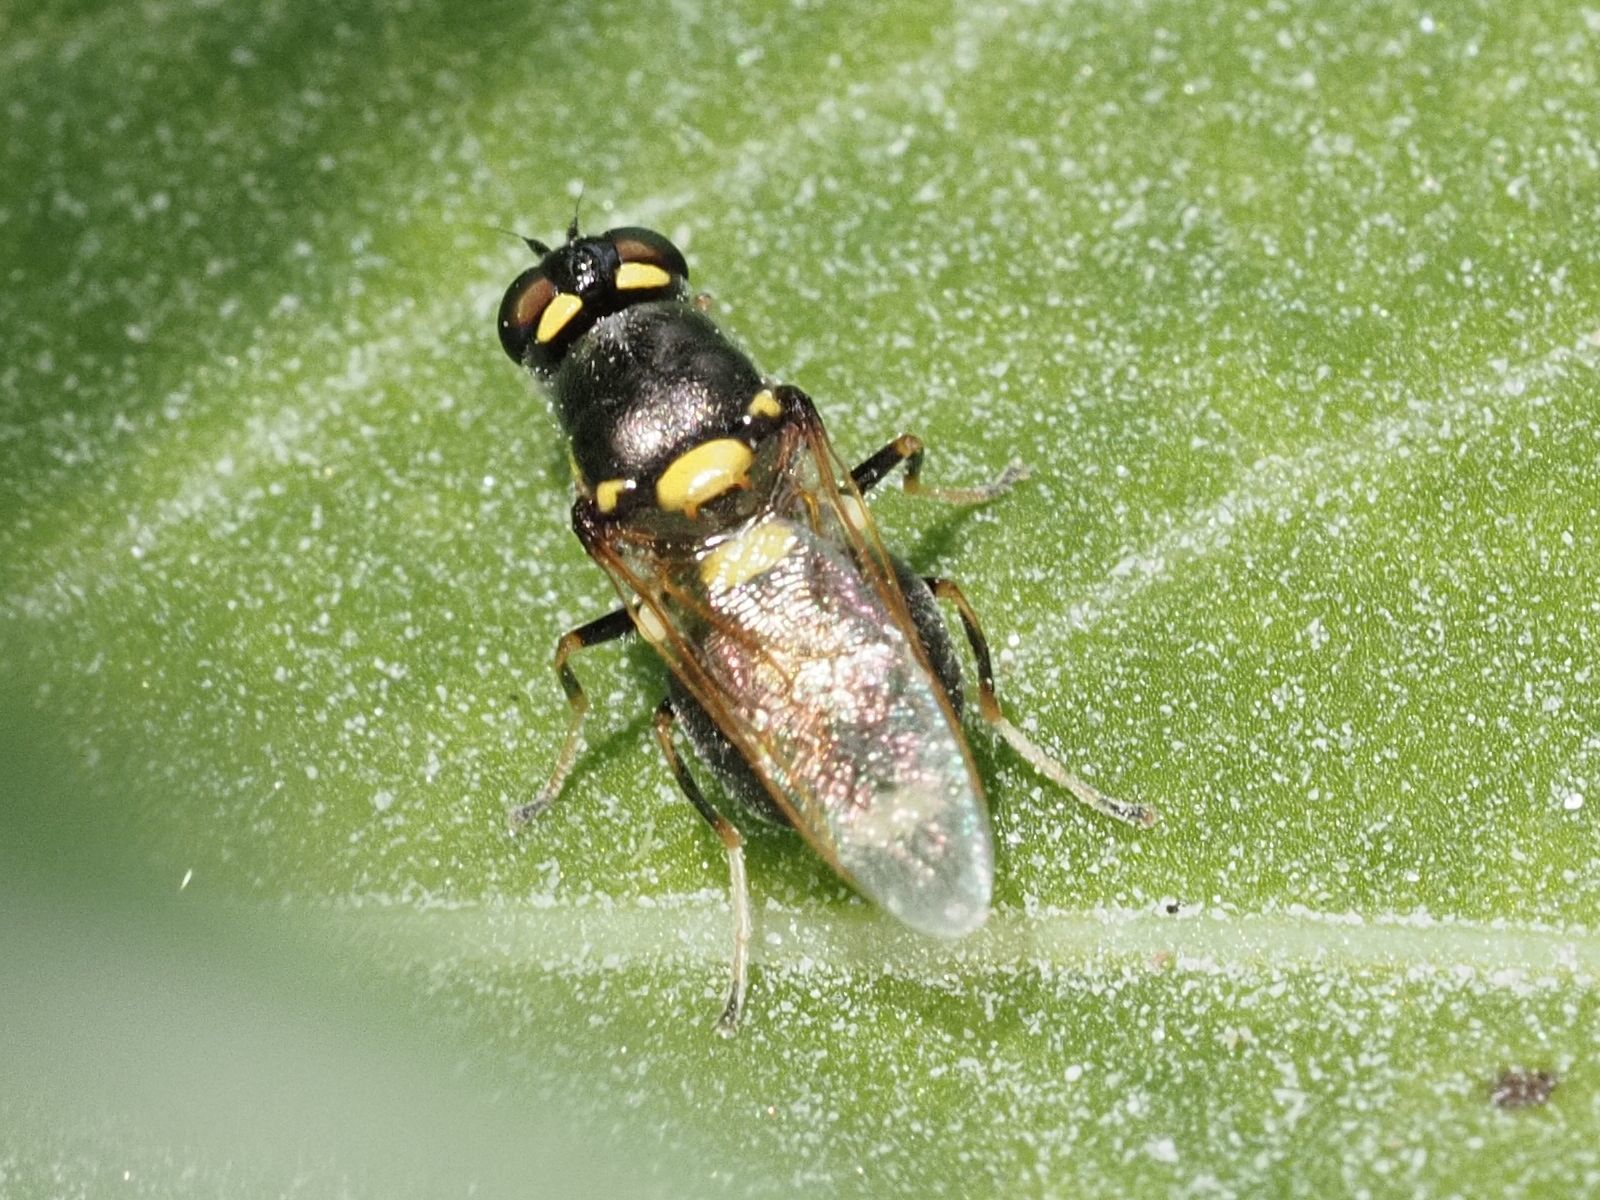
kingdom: Animalia
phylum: Arthropoda
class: Insecta
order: Diptera
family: Stratiomyidae
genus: Oxycera
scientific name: Oxycera leonina
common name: Twin-spotted major
